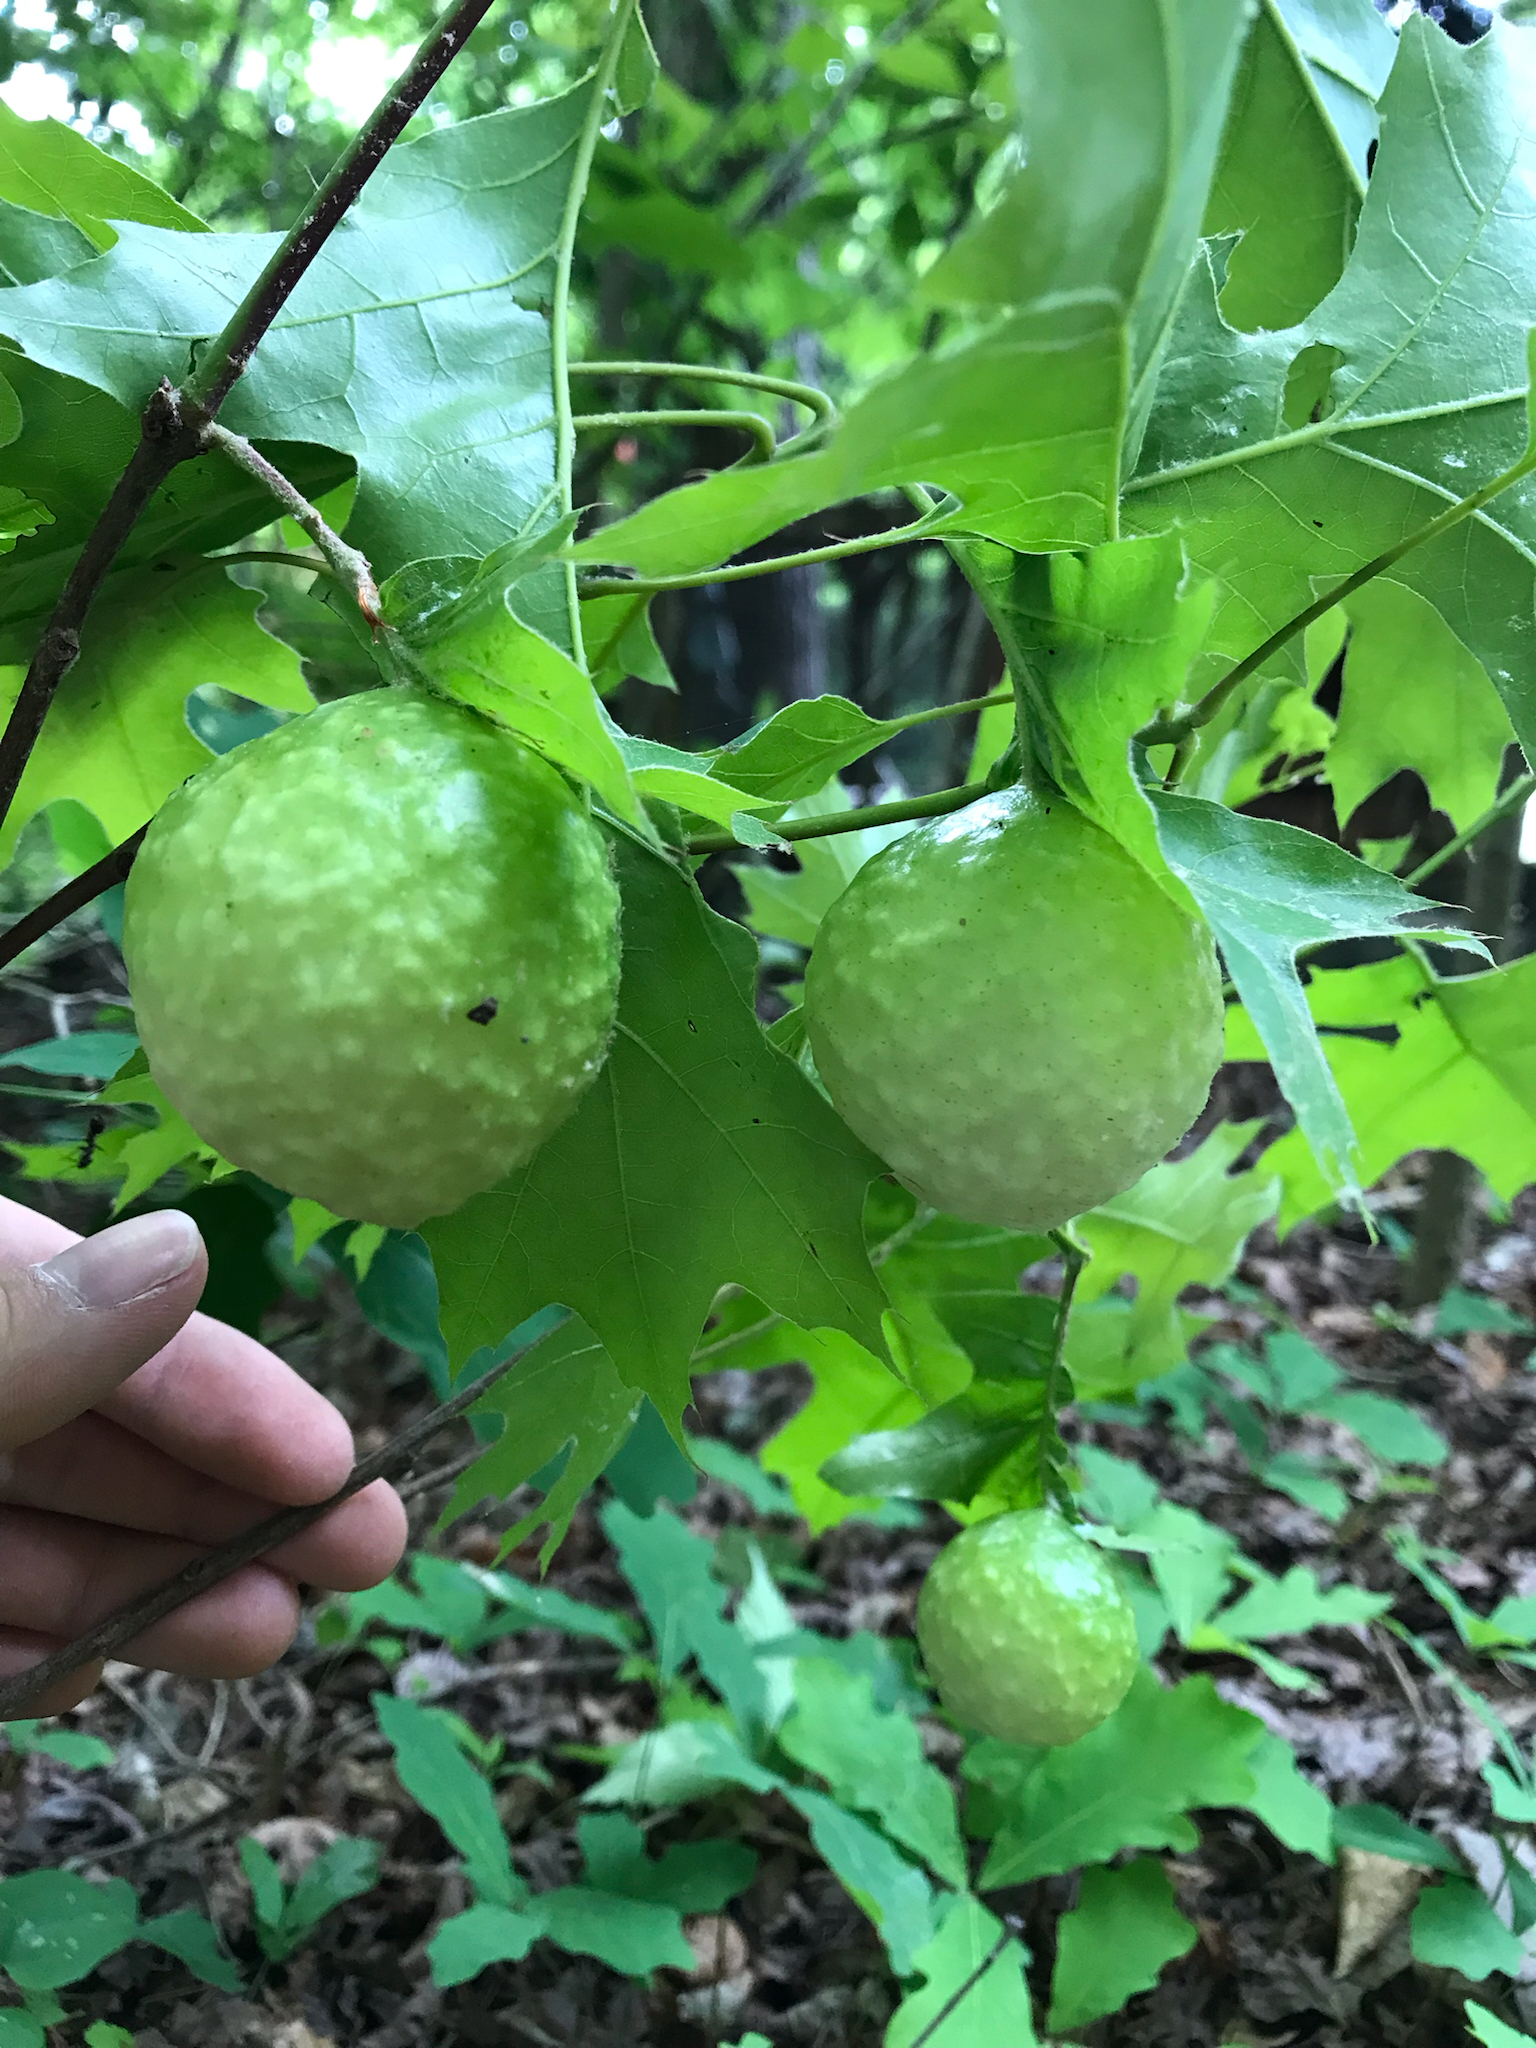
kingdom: Animalia
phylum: Arthropoda
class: Insecta
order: Hymenoptera
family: Cynipidae
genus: Amphibolips
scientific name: Amphibolips
